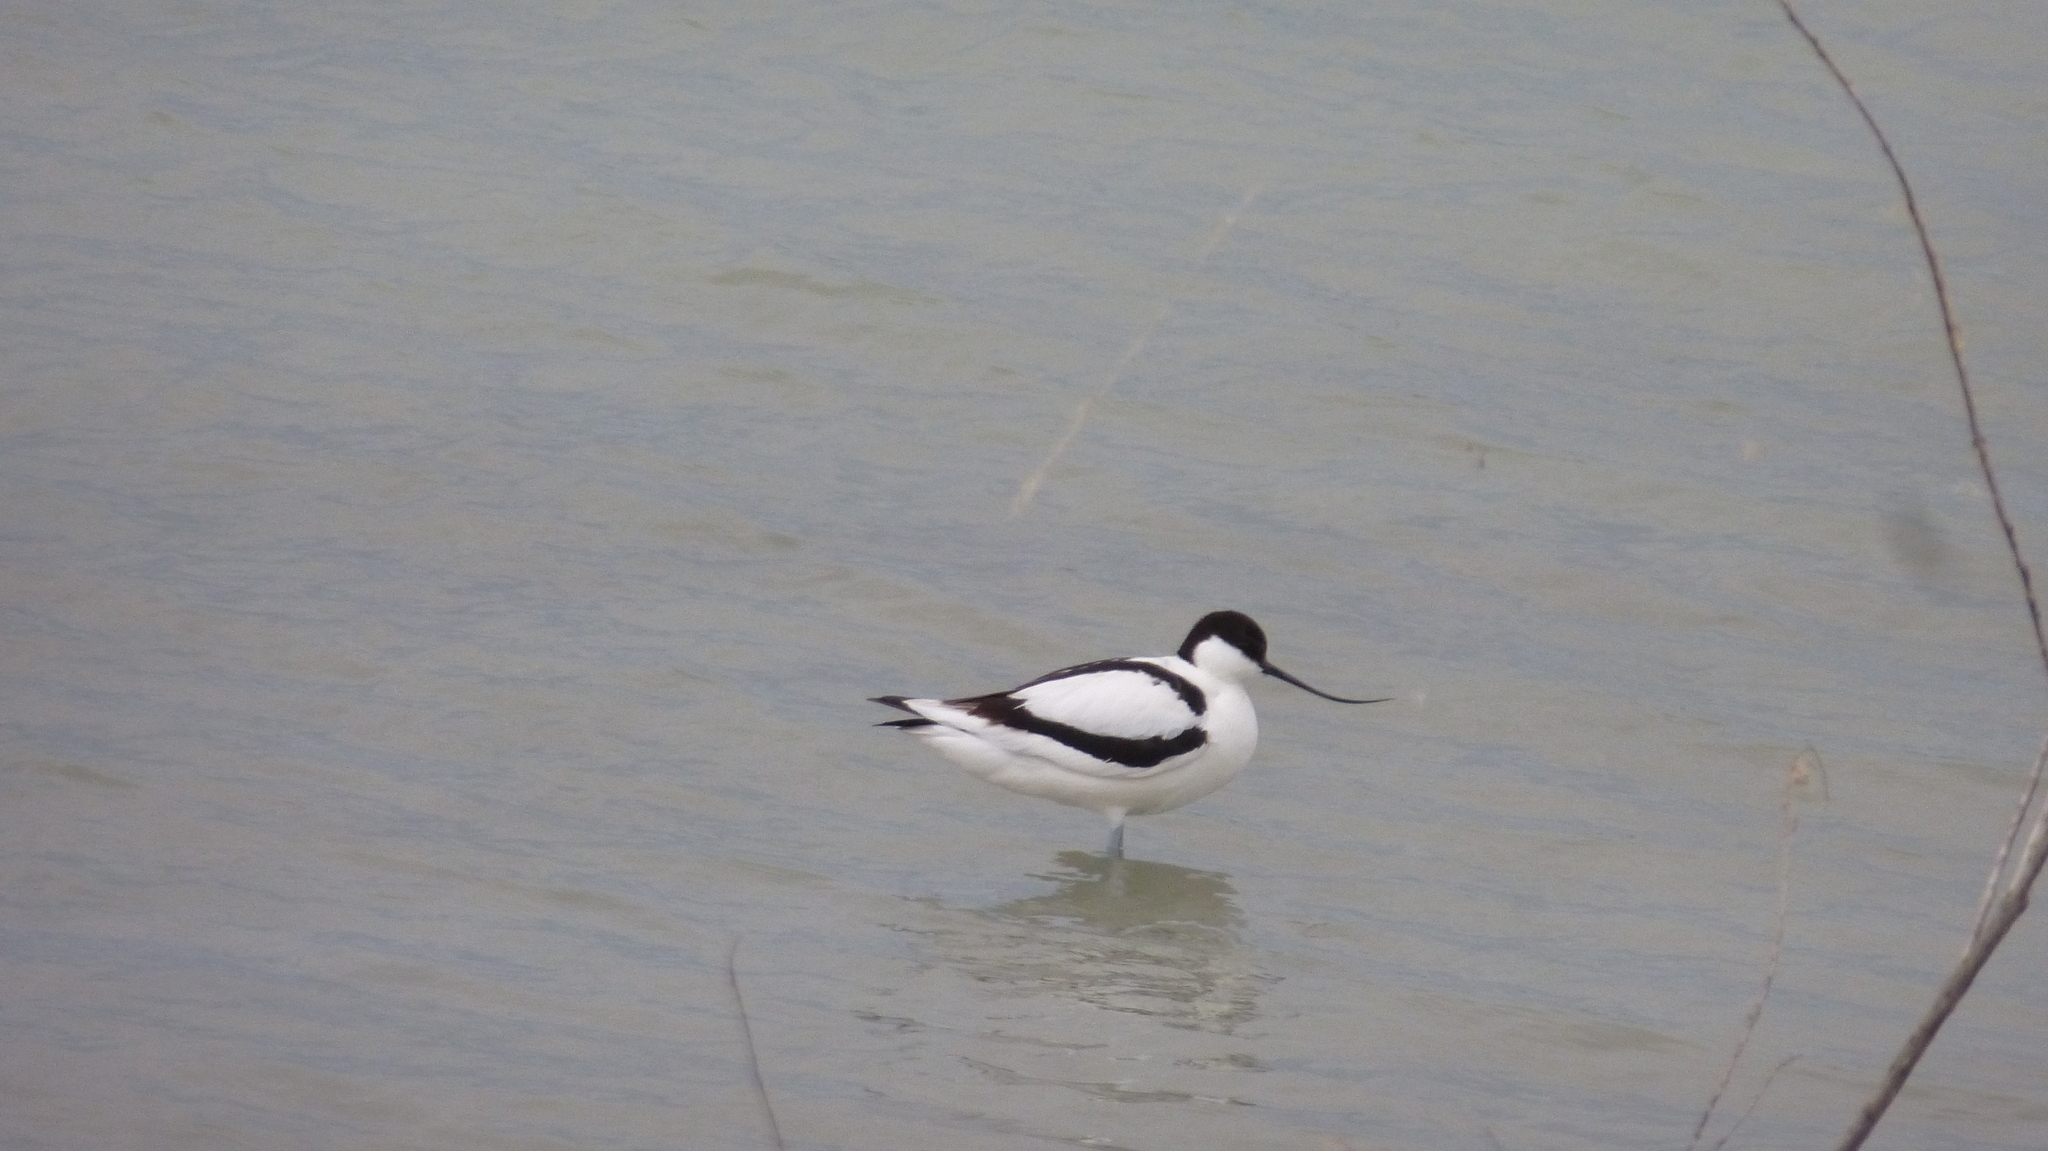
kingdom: Animalia
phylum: Chordata
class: Aves
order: Charadriiformes
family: Recurvirostridae
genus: Recurvirostra
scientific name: Recurvirostra avosetta
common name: Pied avocet
